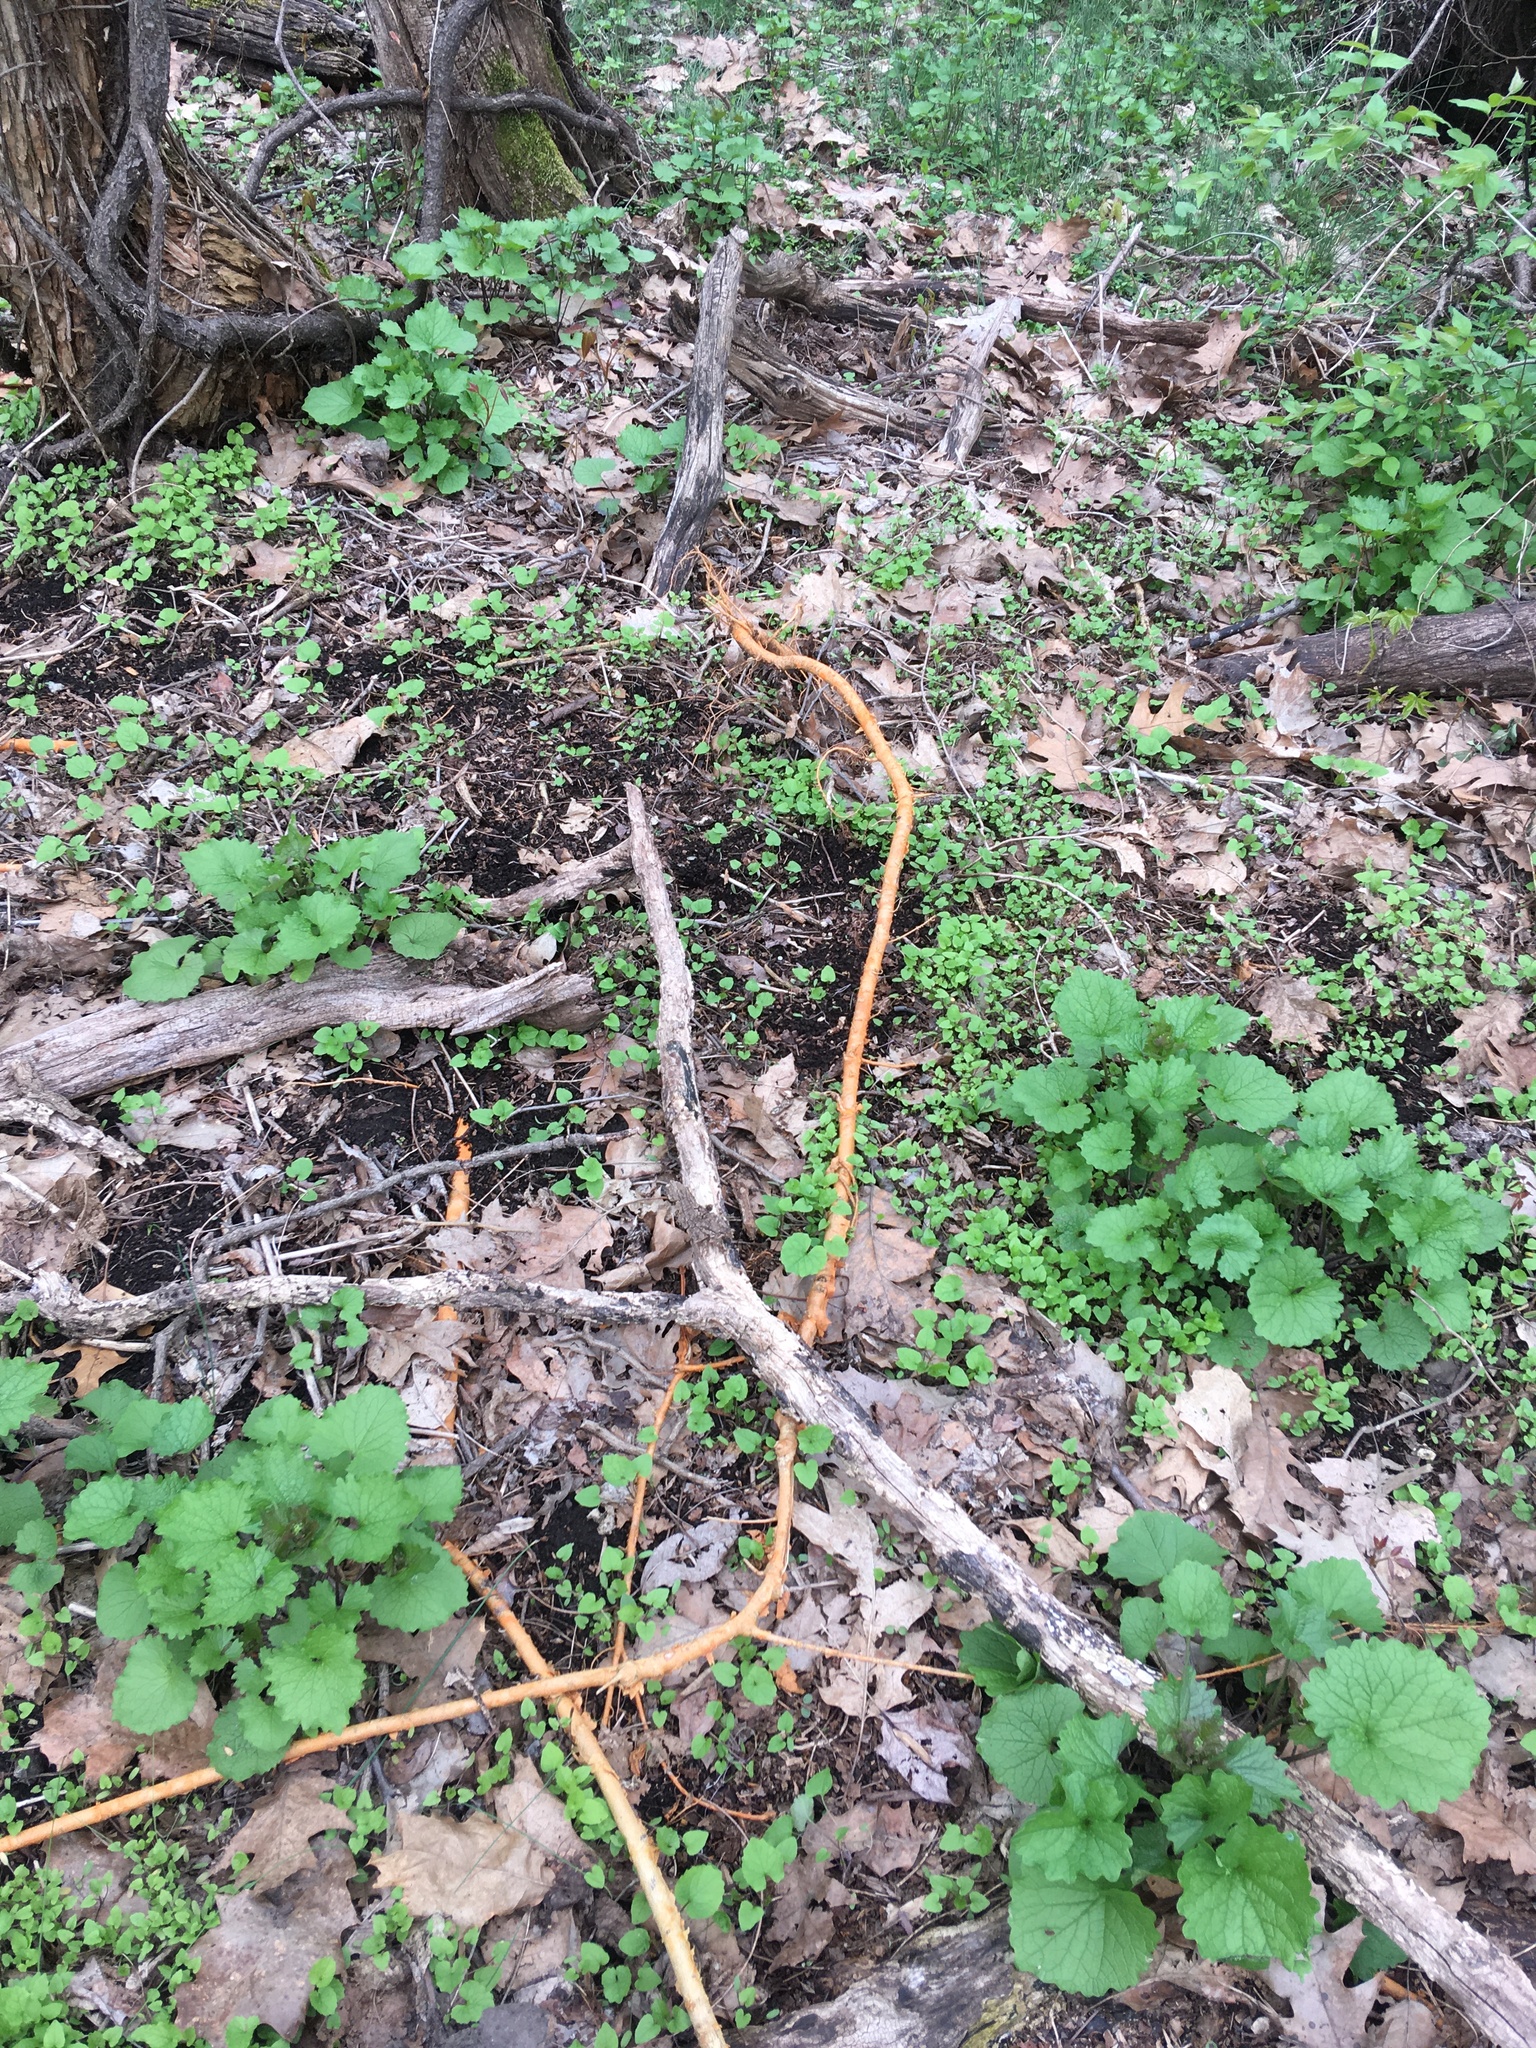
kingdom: Plantae
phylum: Tracheophyta
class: Magnoliopsida
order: Rosales
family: Moraceae
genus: Morus
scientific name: Morus alba
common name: White mulberry
